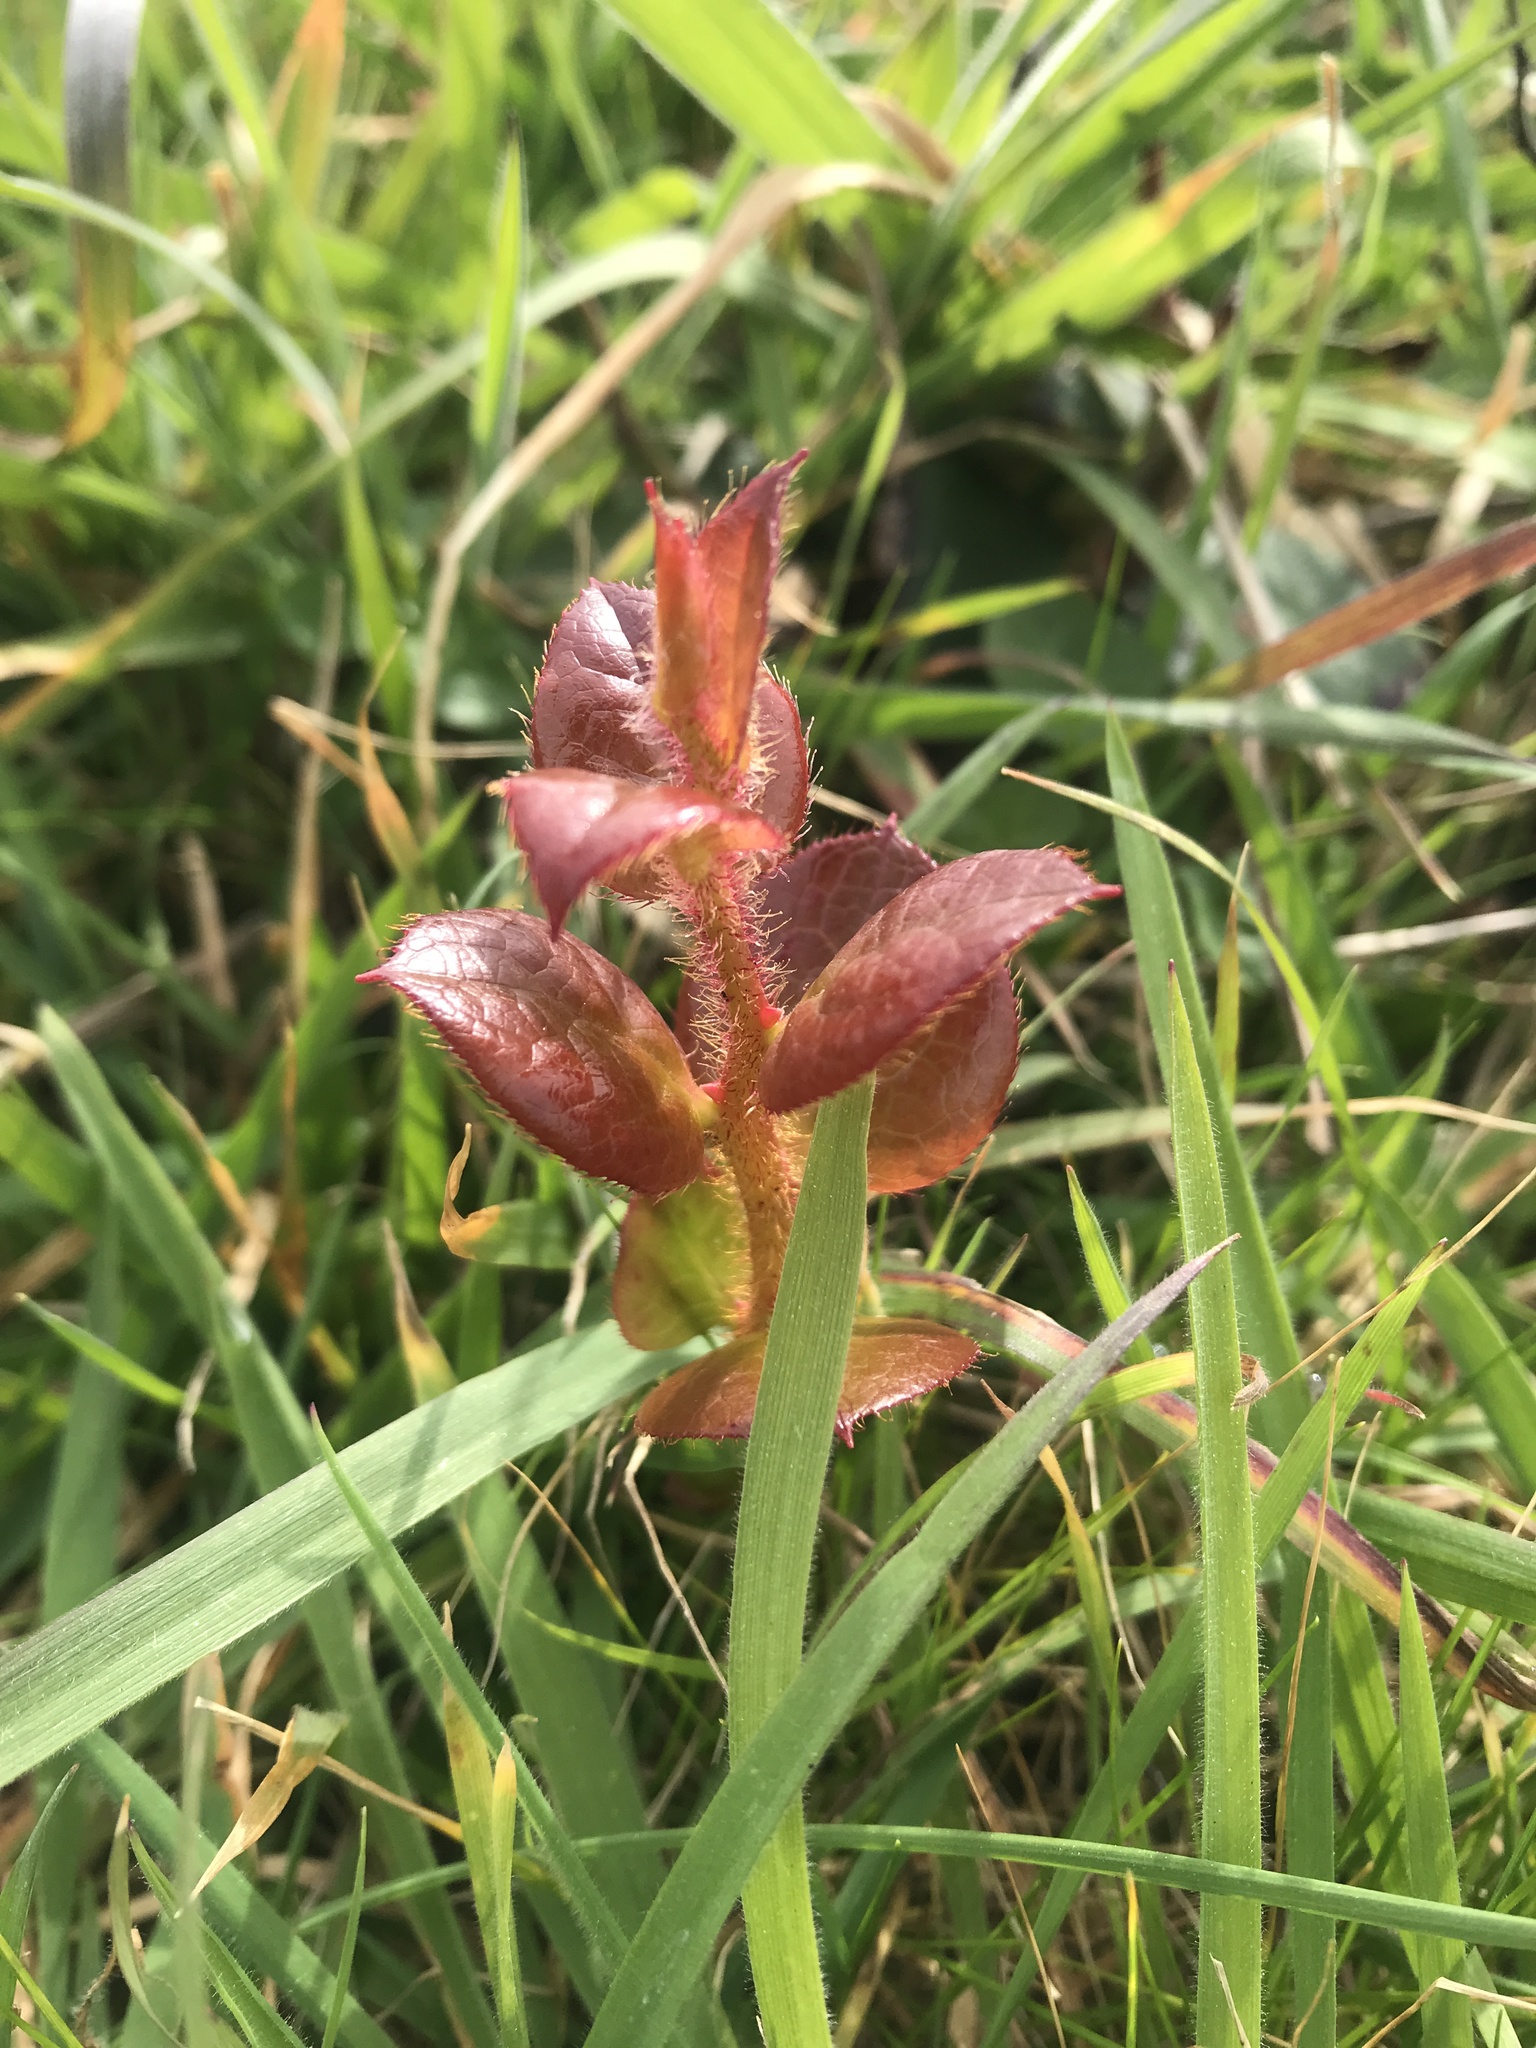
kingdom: Plantae
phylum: Tracheophyta
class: Magnoliopsida
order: Ericales
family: Ericaceae
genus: Gaultheria
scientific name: Gaultheria shallon
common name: Shallon
